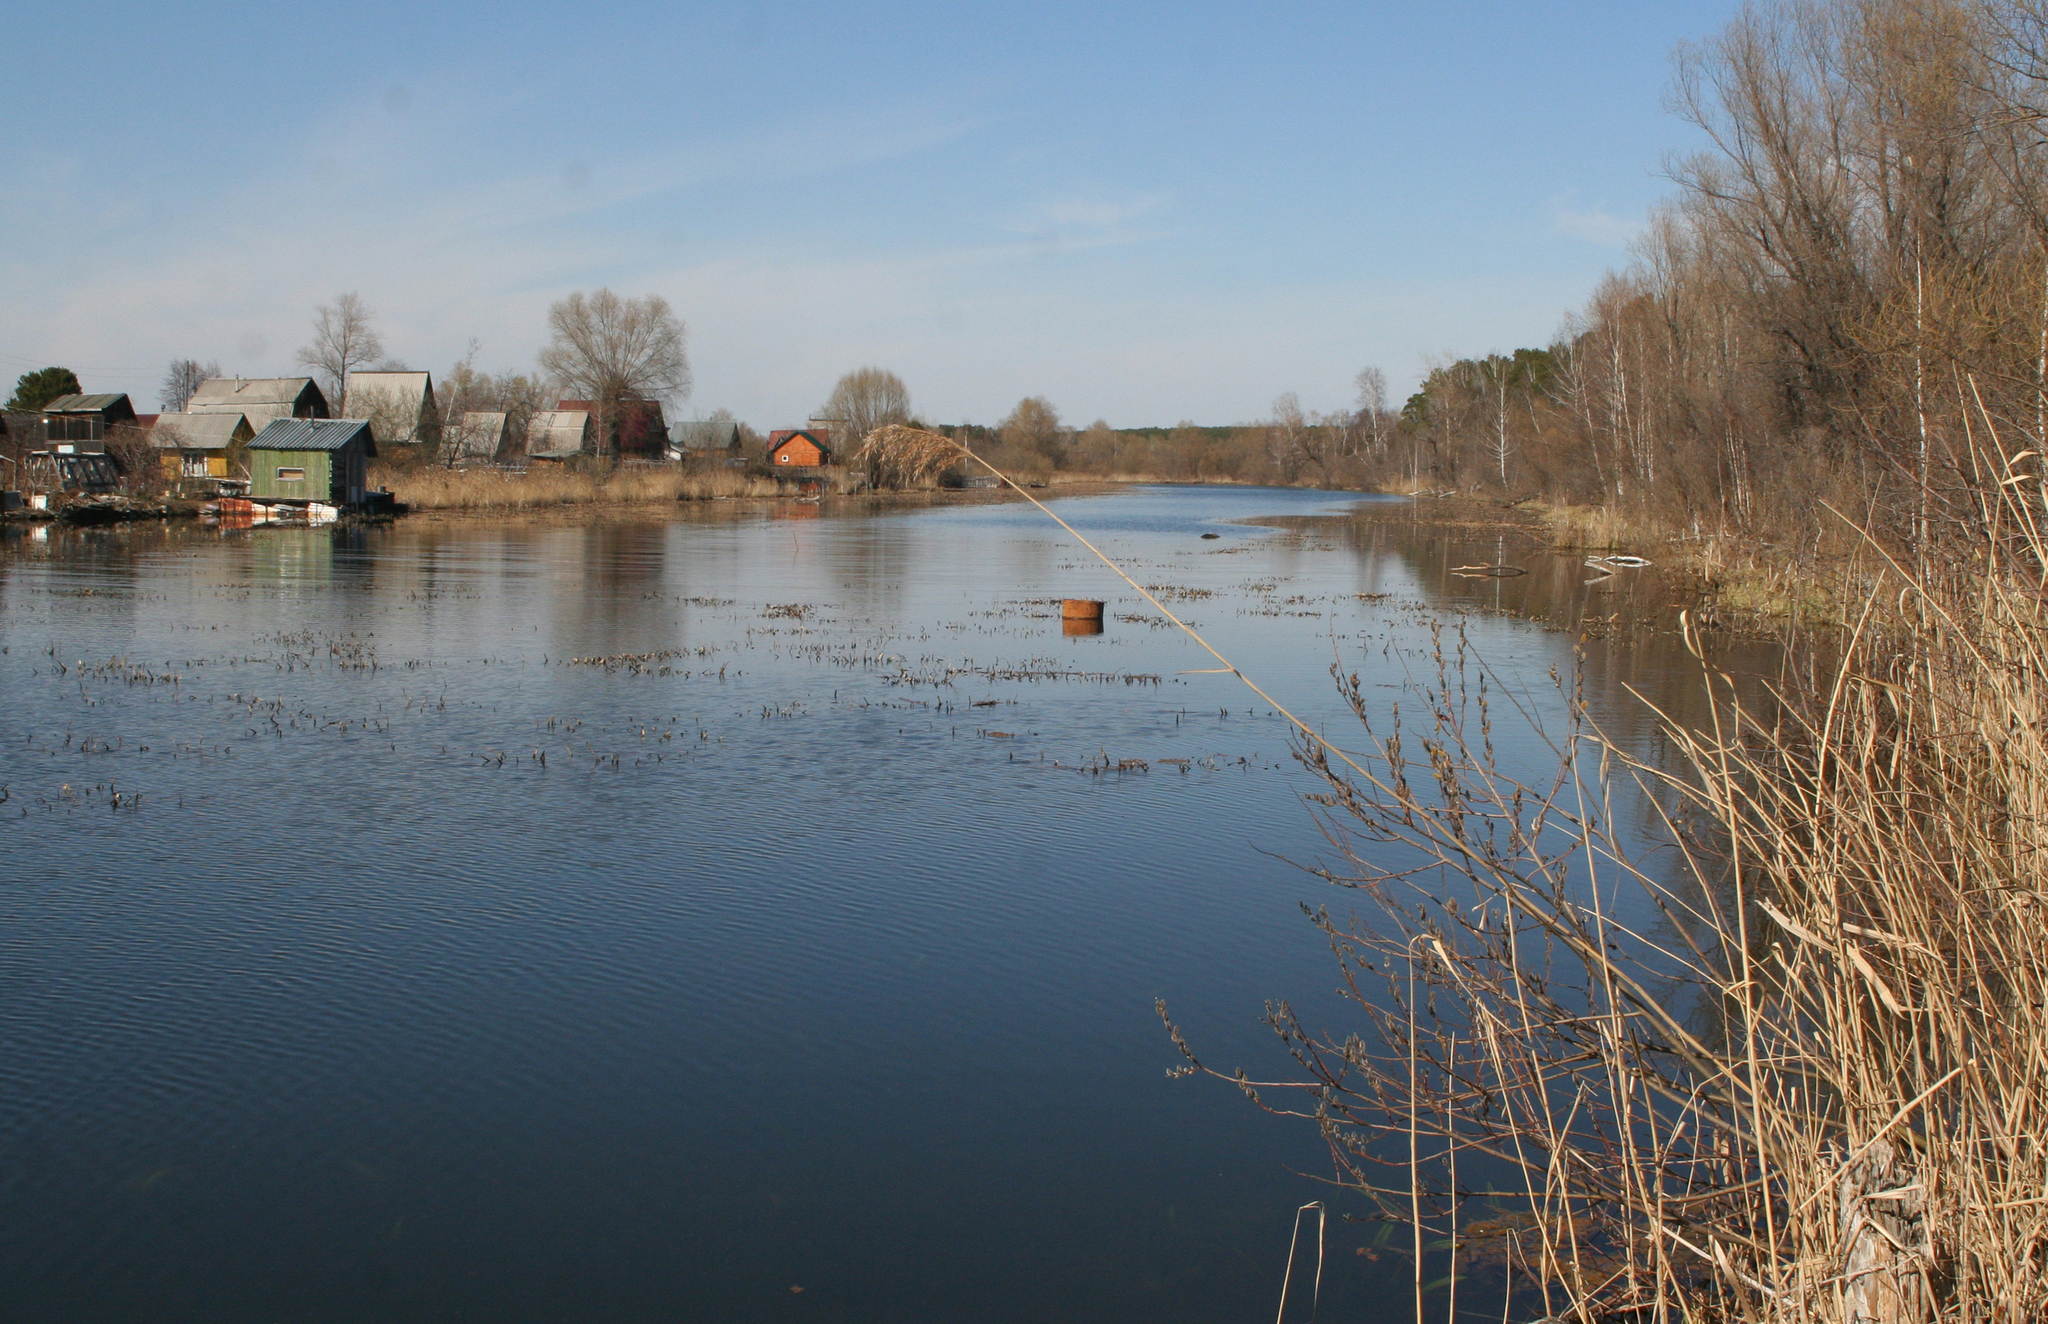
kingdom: Plantae
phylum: Tracheophyta
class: Liliopsida
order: Poales
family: Poaceae
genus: Phragmites
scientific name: Phragmites australis
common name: Common reed
